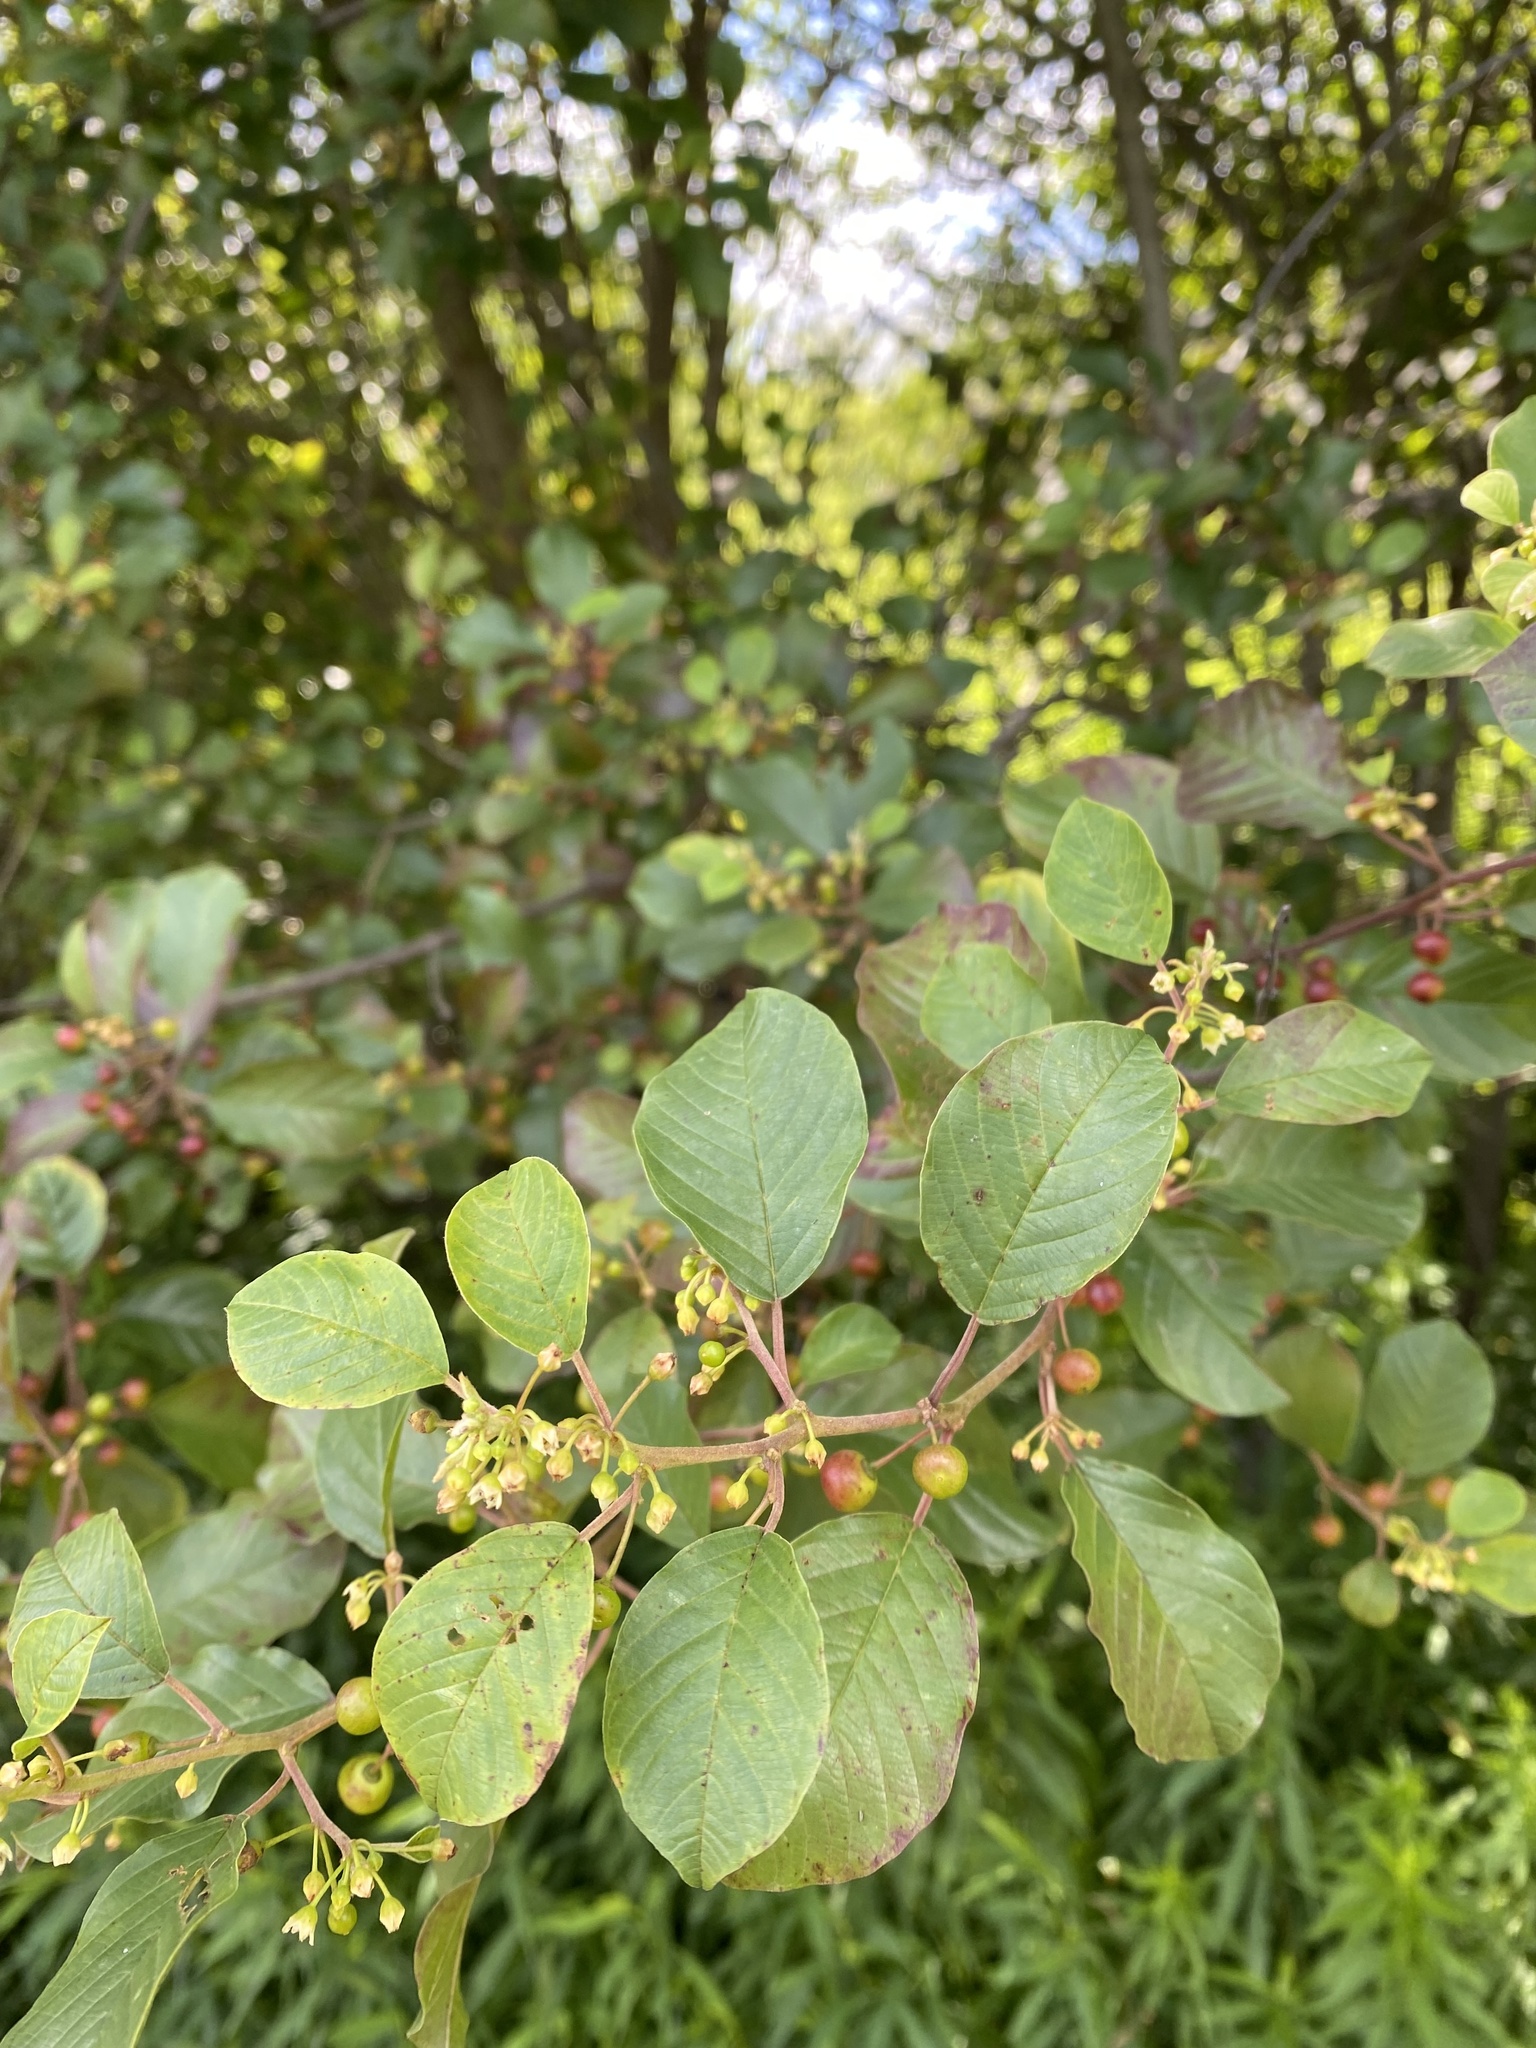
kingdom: Plantae
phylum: Tracheophyta
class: Magnoliopsida
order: Rosales
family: Rhamnaceae
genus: Frangula
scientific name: Frangula alnus
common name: Alder buckthorn
